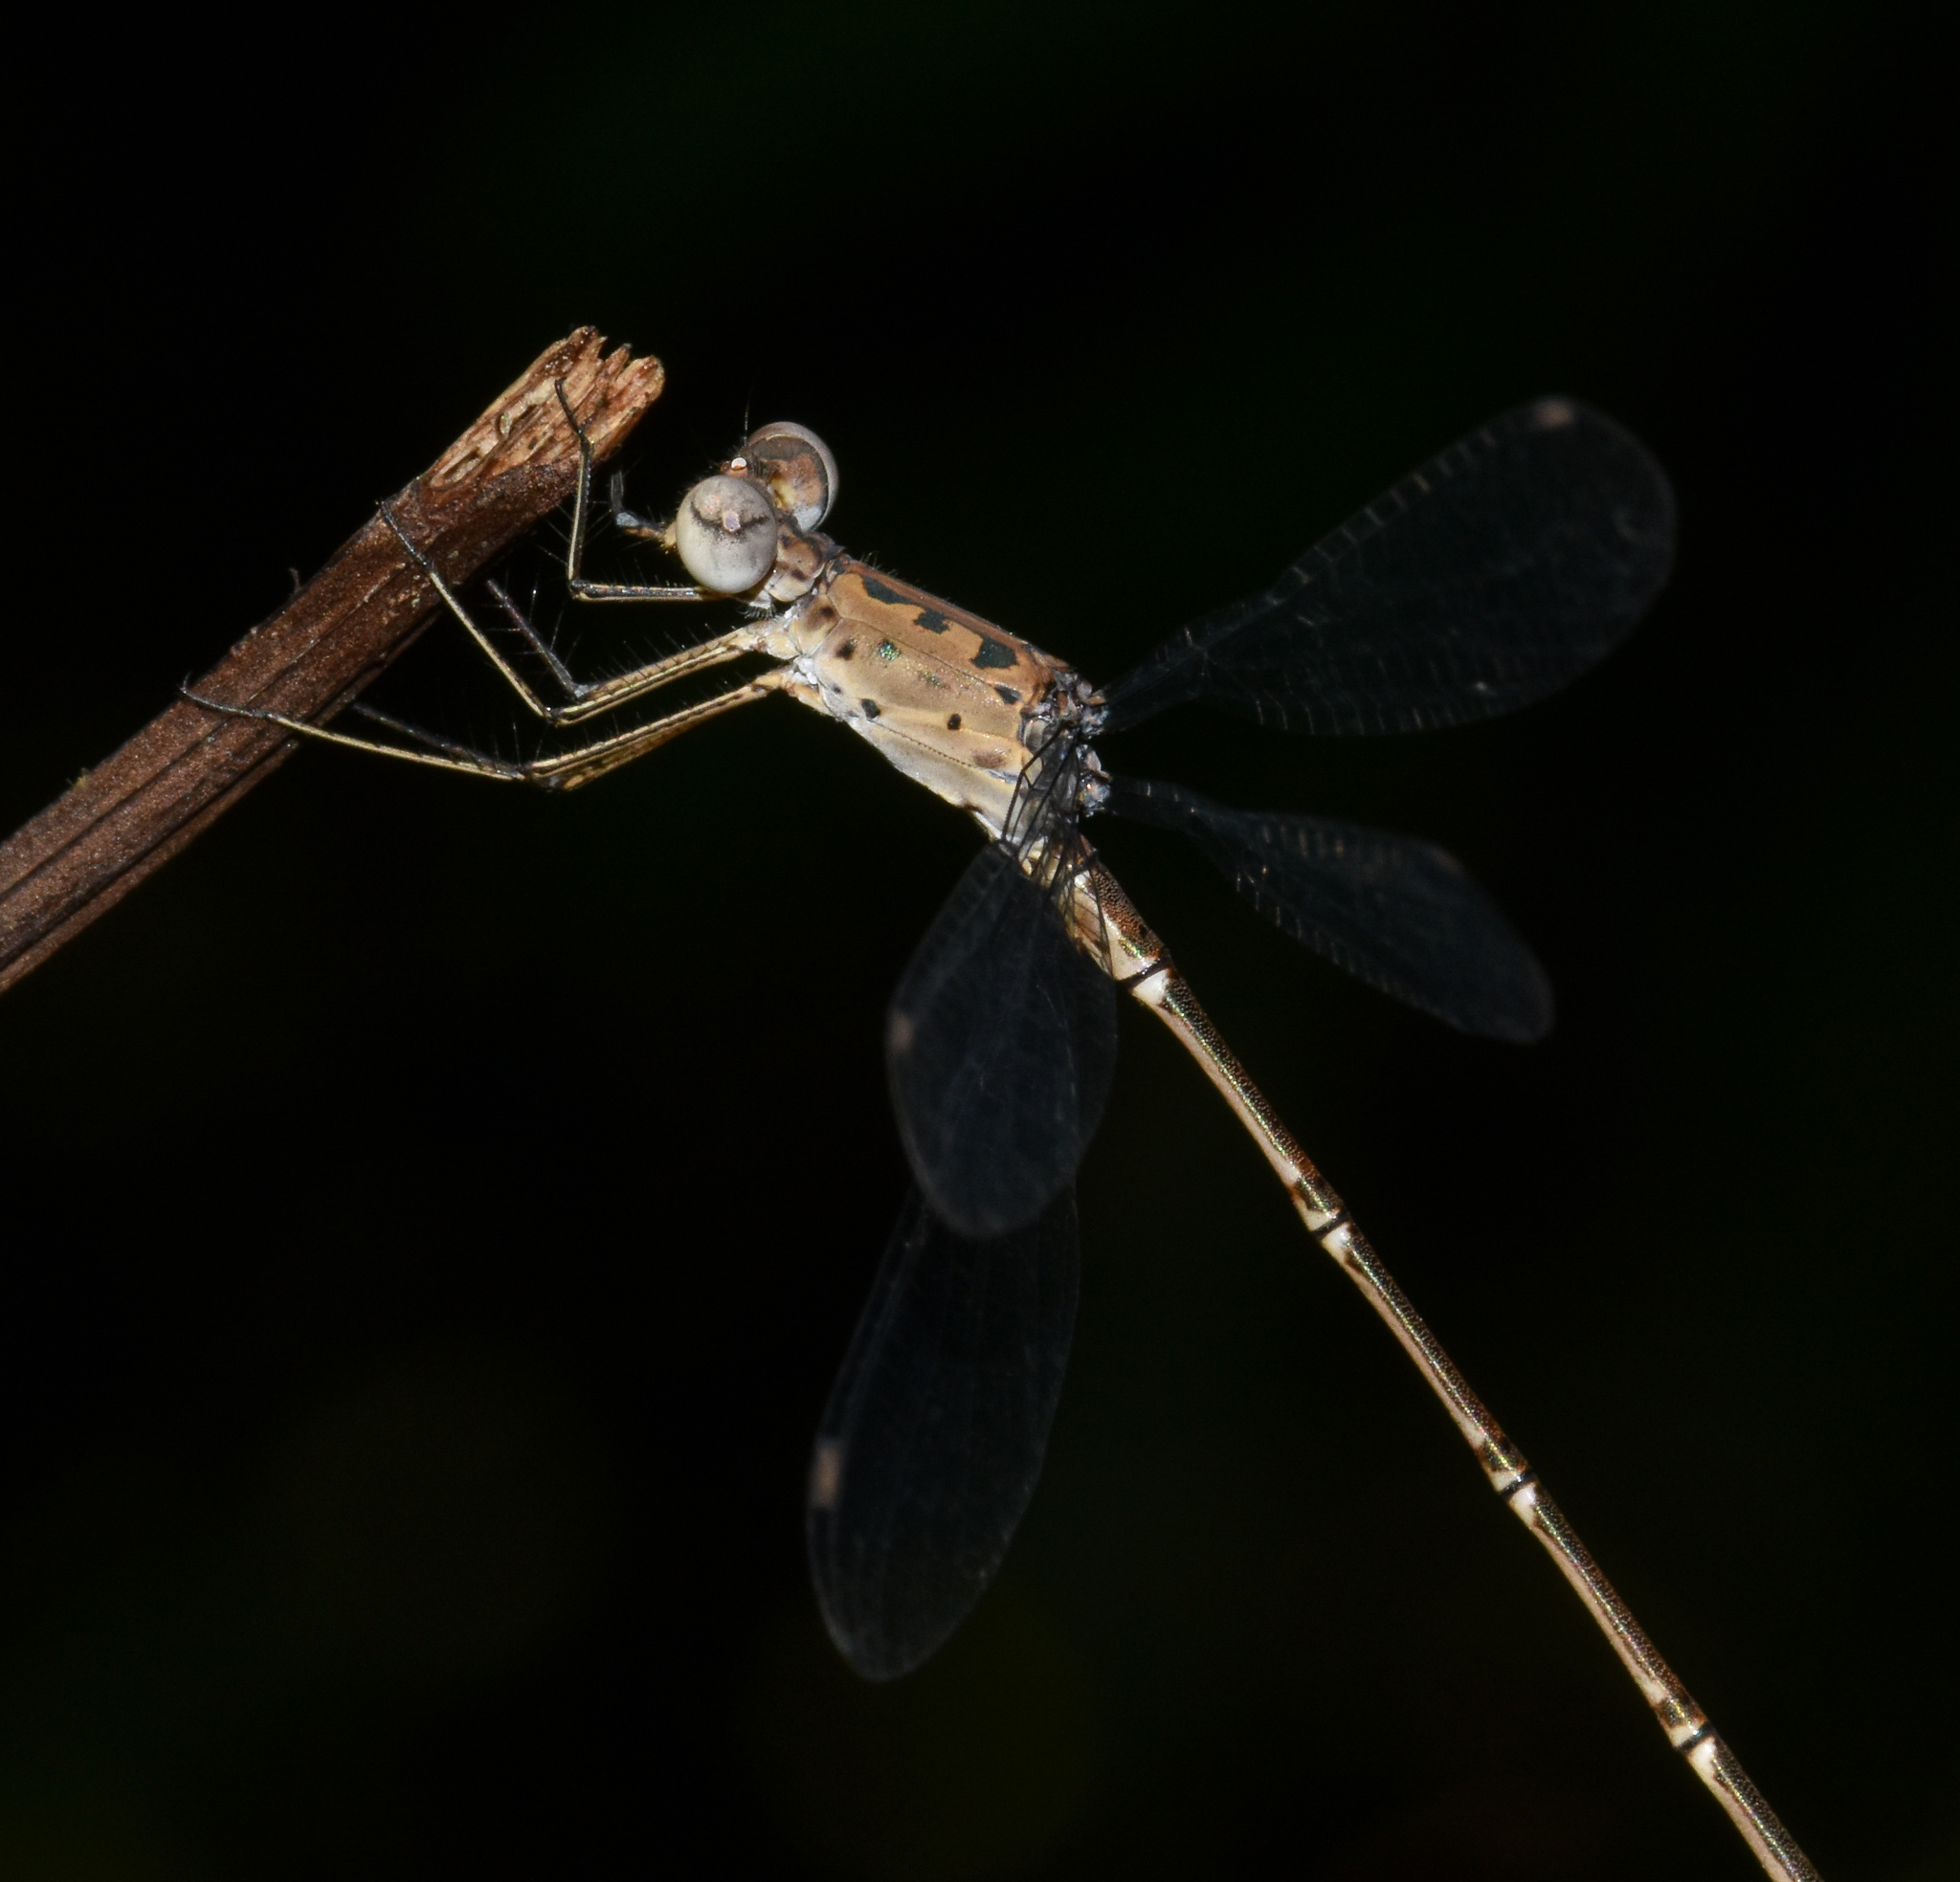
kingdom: Animalia
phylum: Arthropoda
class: Insecta
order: Odonata
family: Lestidae
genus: Lestes
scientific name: Lestes praemorsus
